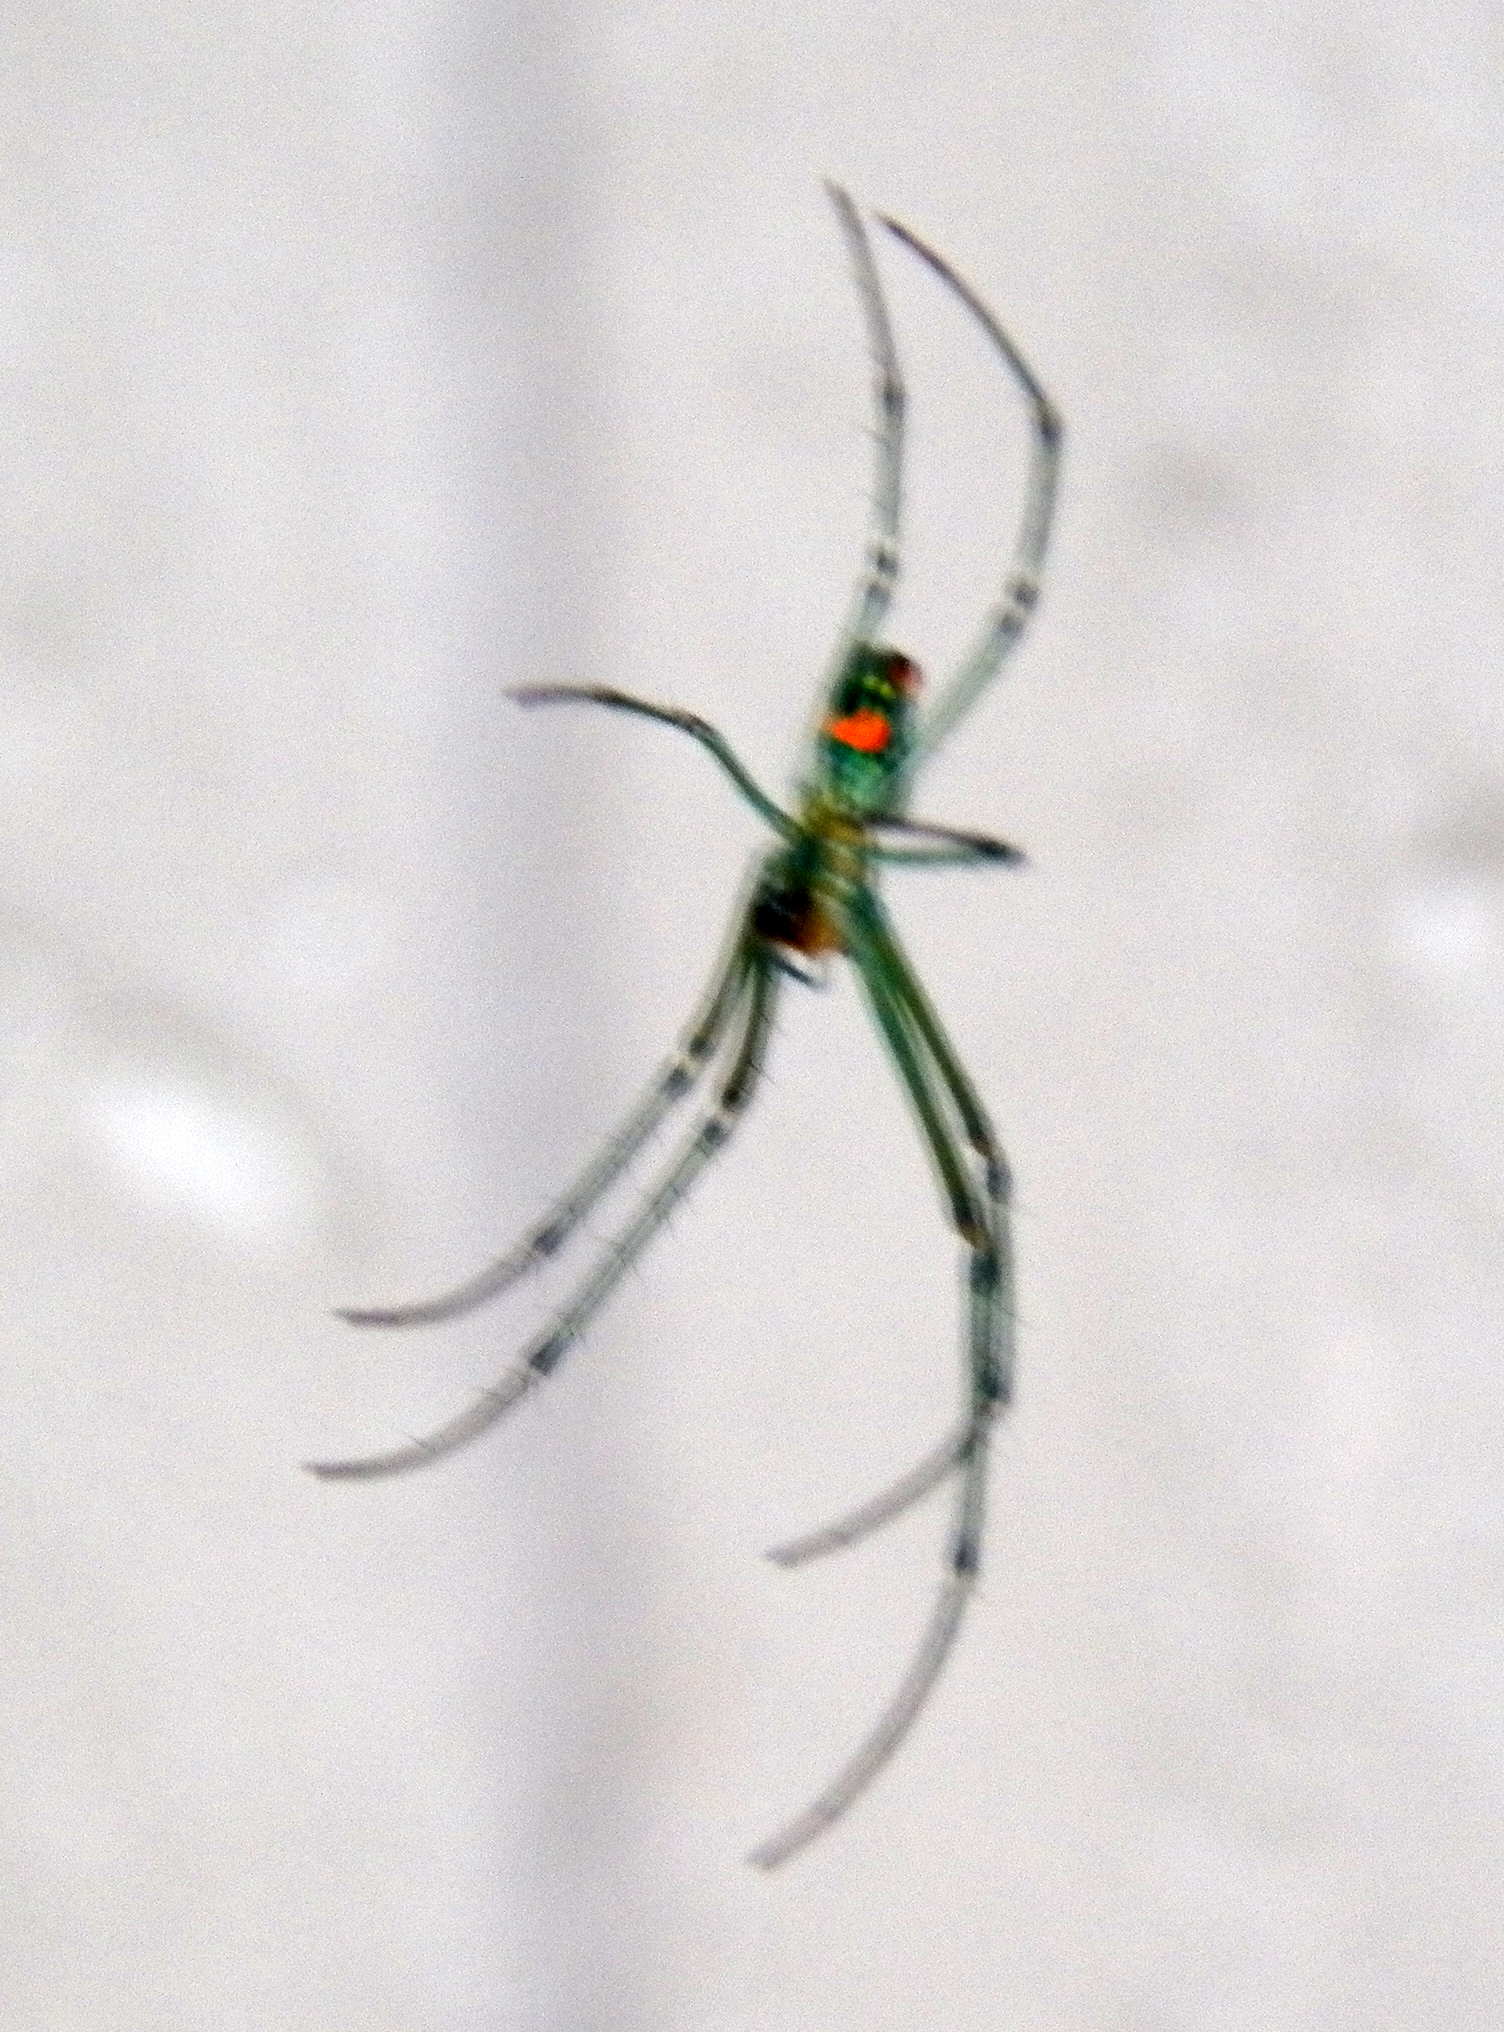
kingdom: Animalia
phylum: Arthropoda
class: Arachnida
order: Araneae
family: Tetragnathidae
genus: Leucauge
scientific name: Leucauge argyrobapta
